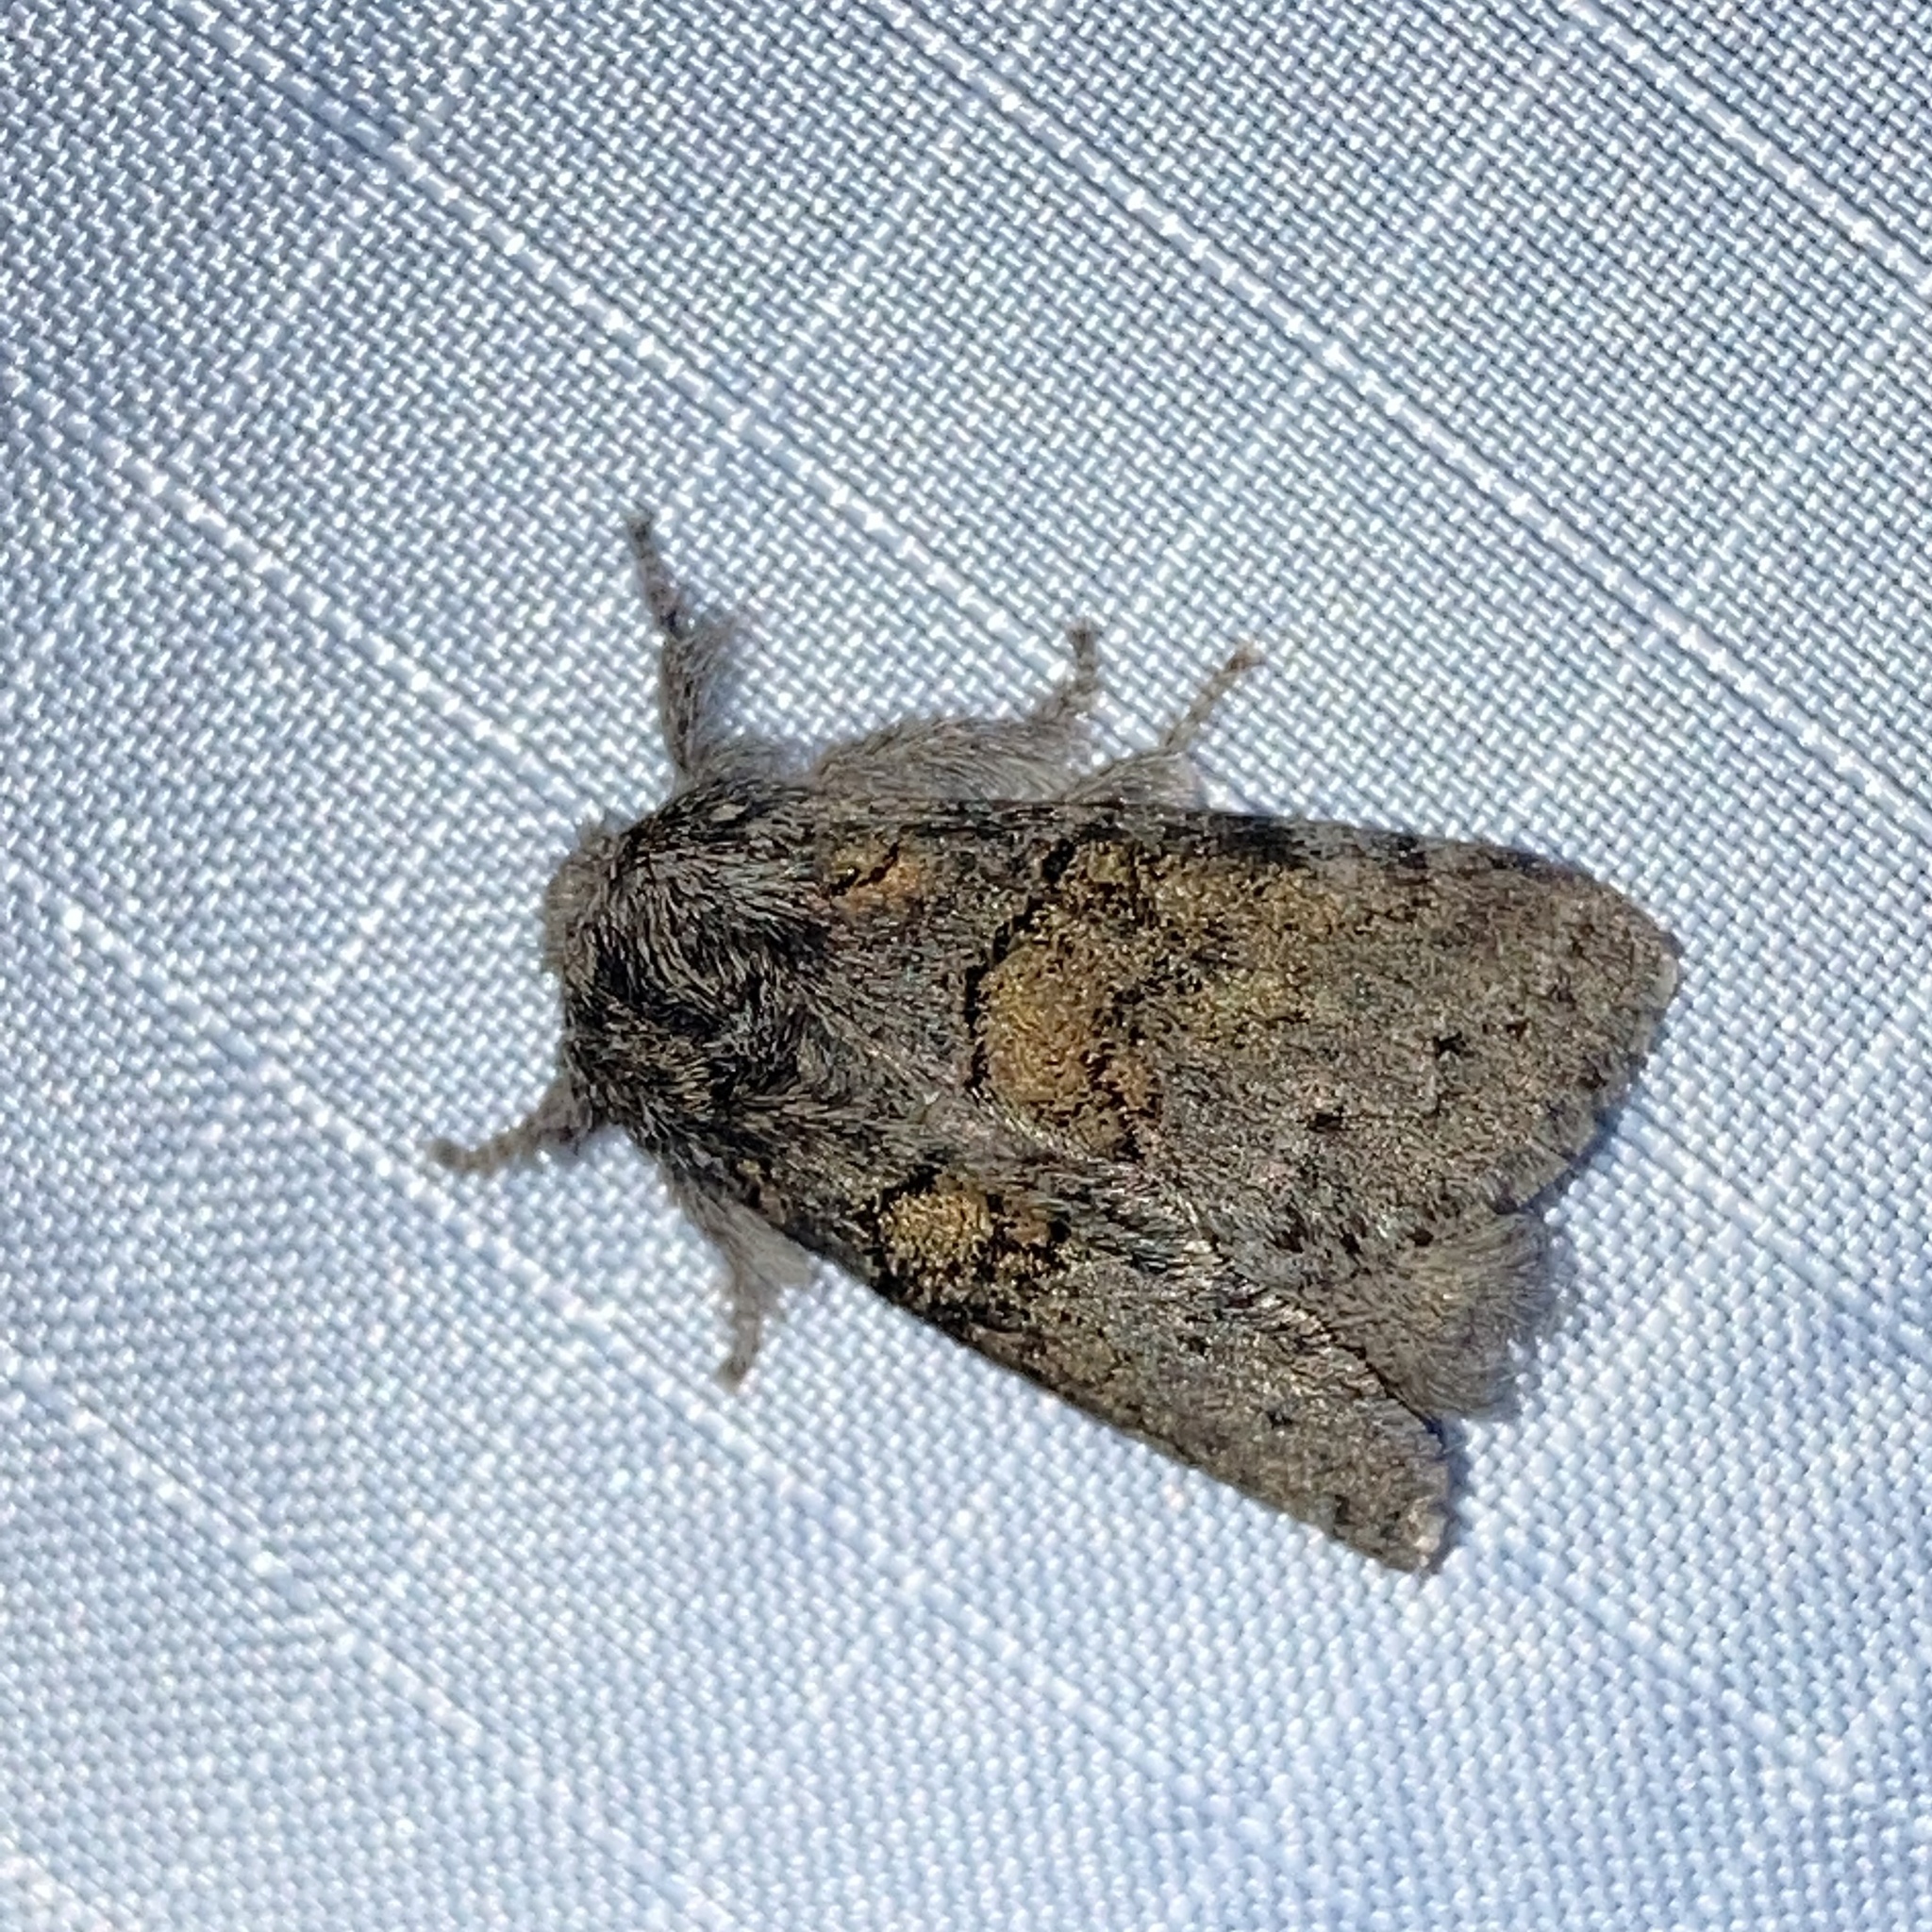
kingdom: Animalia
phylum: Arthropoda
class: Insecta
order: Lepidoptera
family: Notodontidae
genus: Gluphisia
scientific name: Gluphisia septentrionis
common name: Common gluphisia
